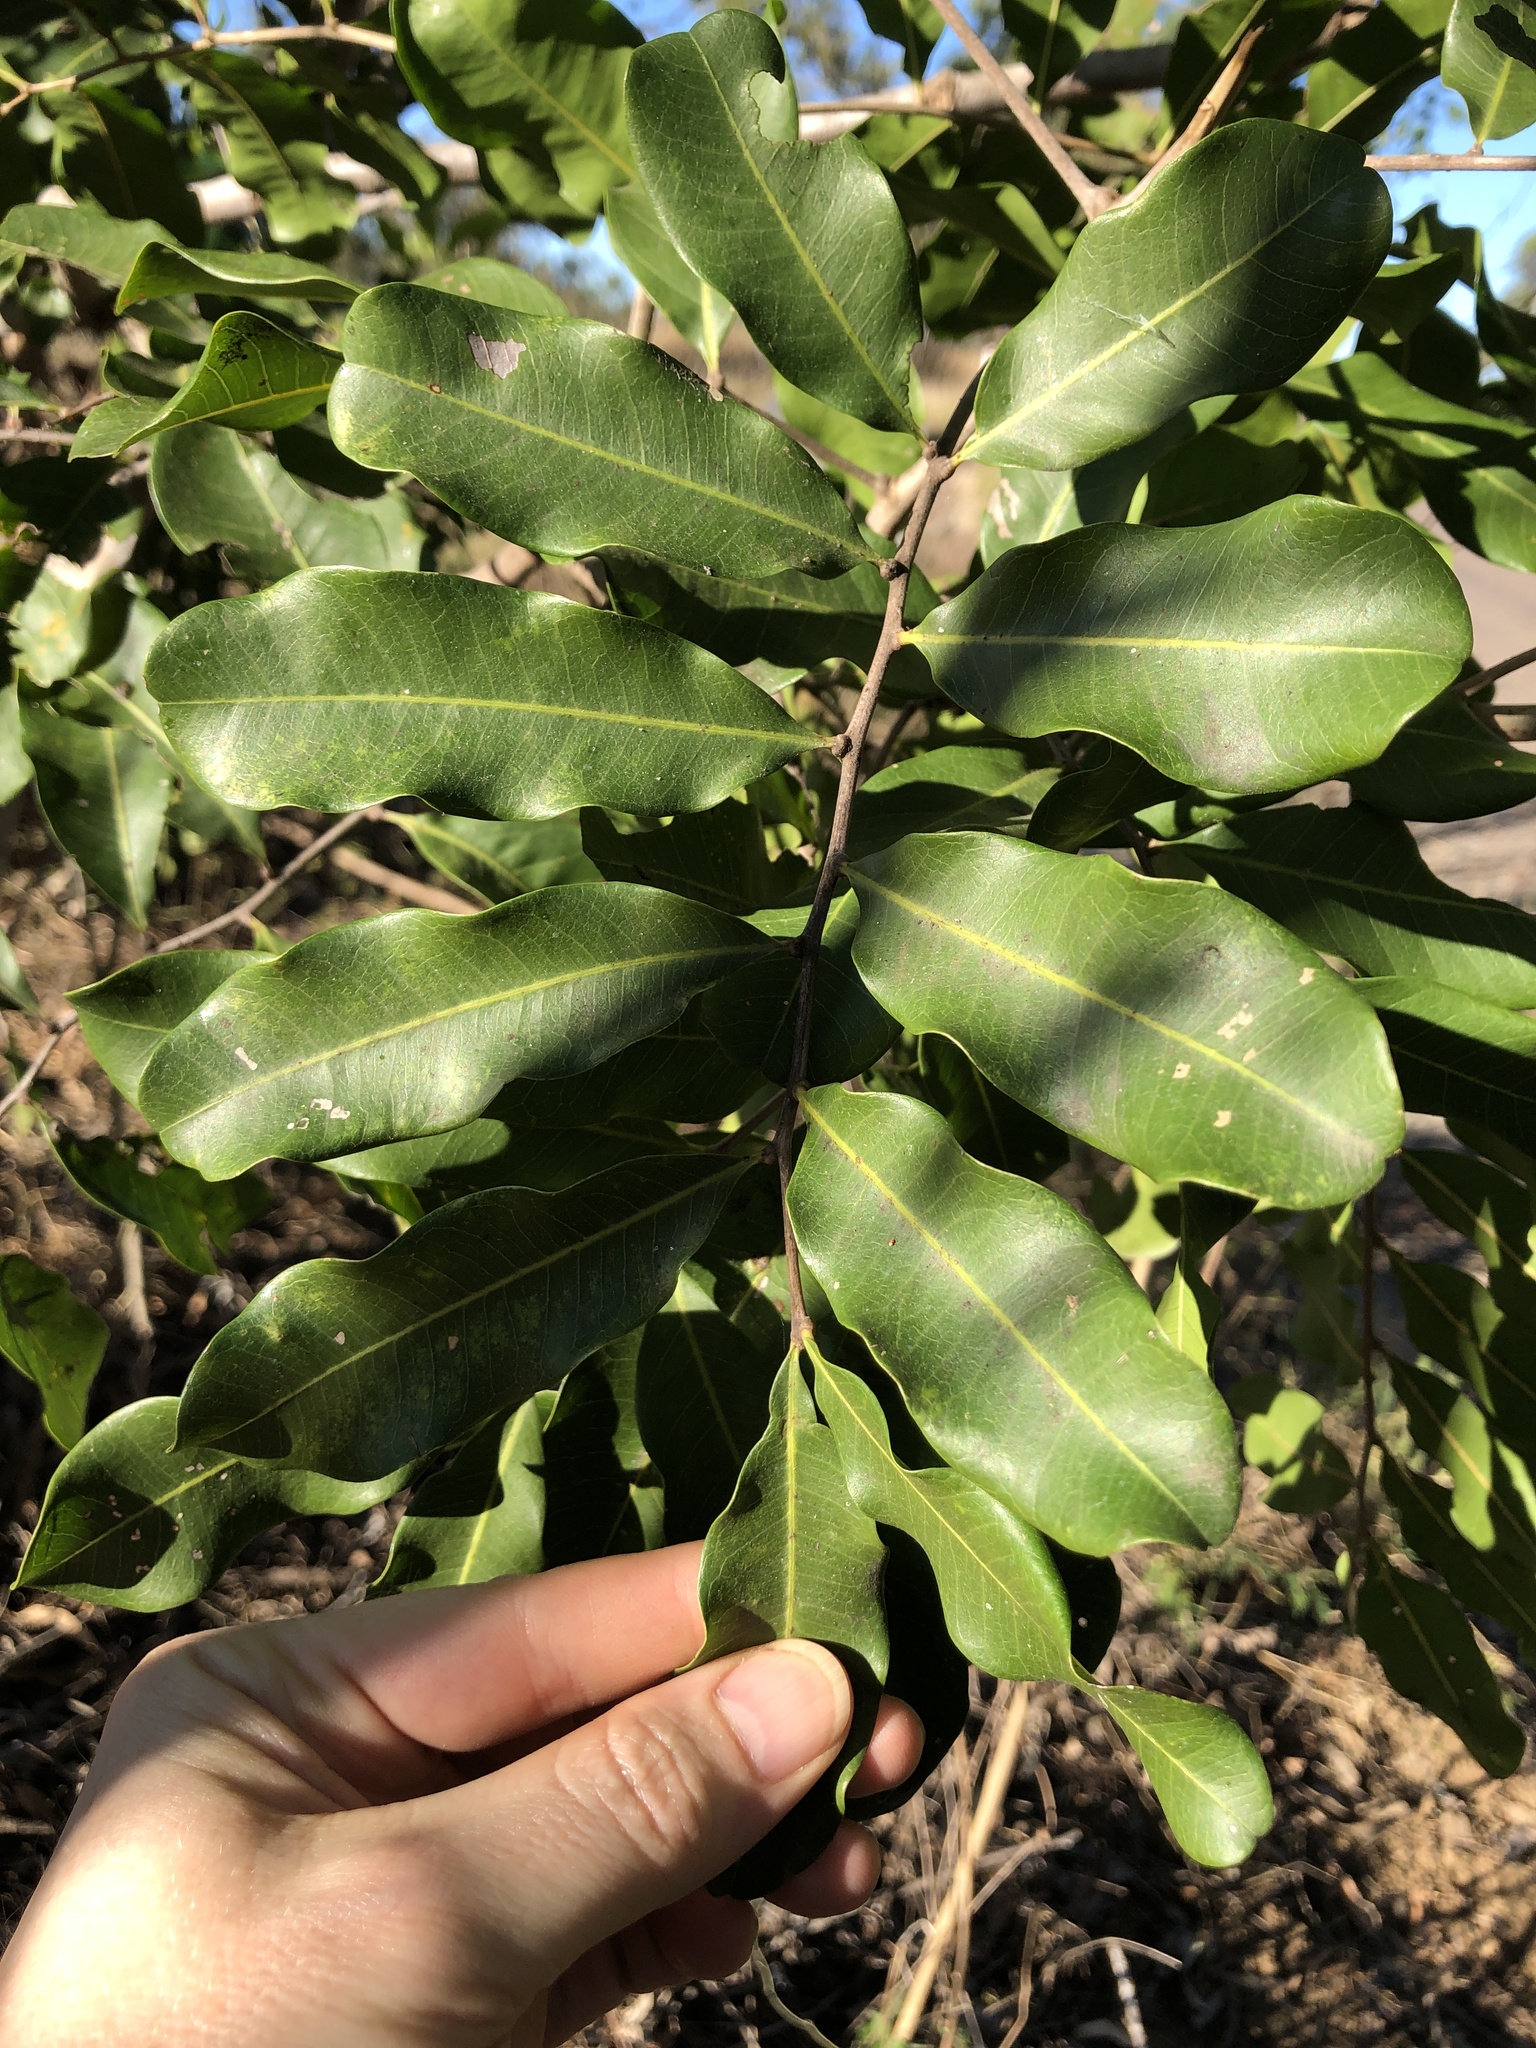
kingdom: Plantae
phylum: Tracheophyta
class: Magnoliopsida
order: Sapindales
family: Sapindaceae
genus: Cupaniopsis
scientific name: Cupaniopsis anacardioides
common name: Carrotwood
